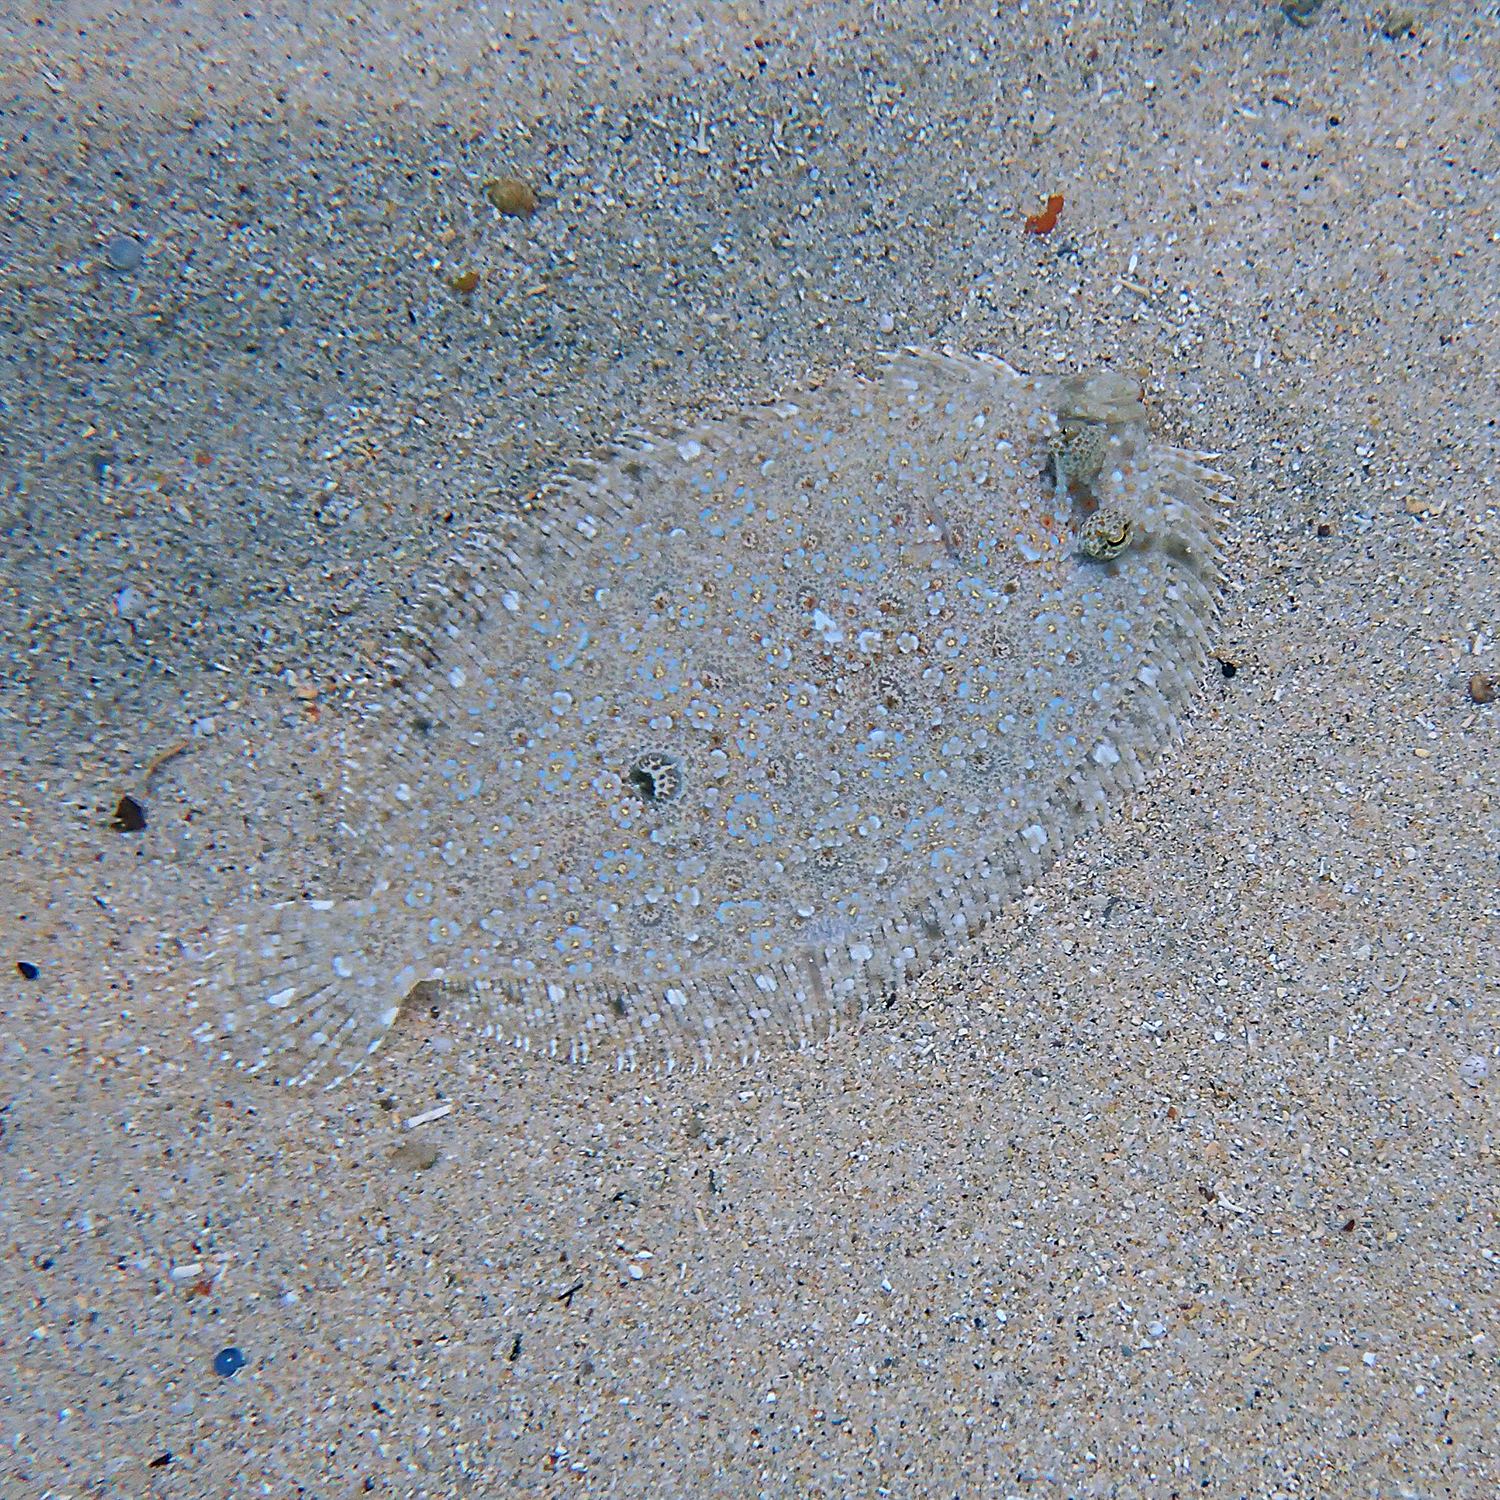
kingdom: Animalia
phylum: Chordata
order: Pleuronectiformes
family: Bothidae
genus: Bothus
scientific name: Bothus pantherinus
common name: Leopard flounder
